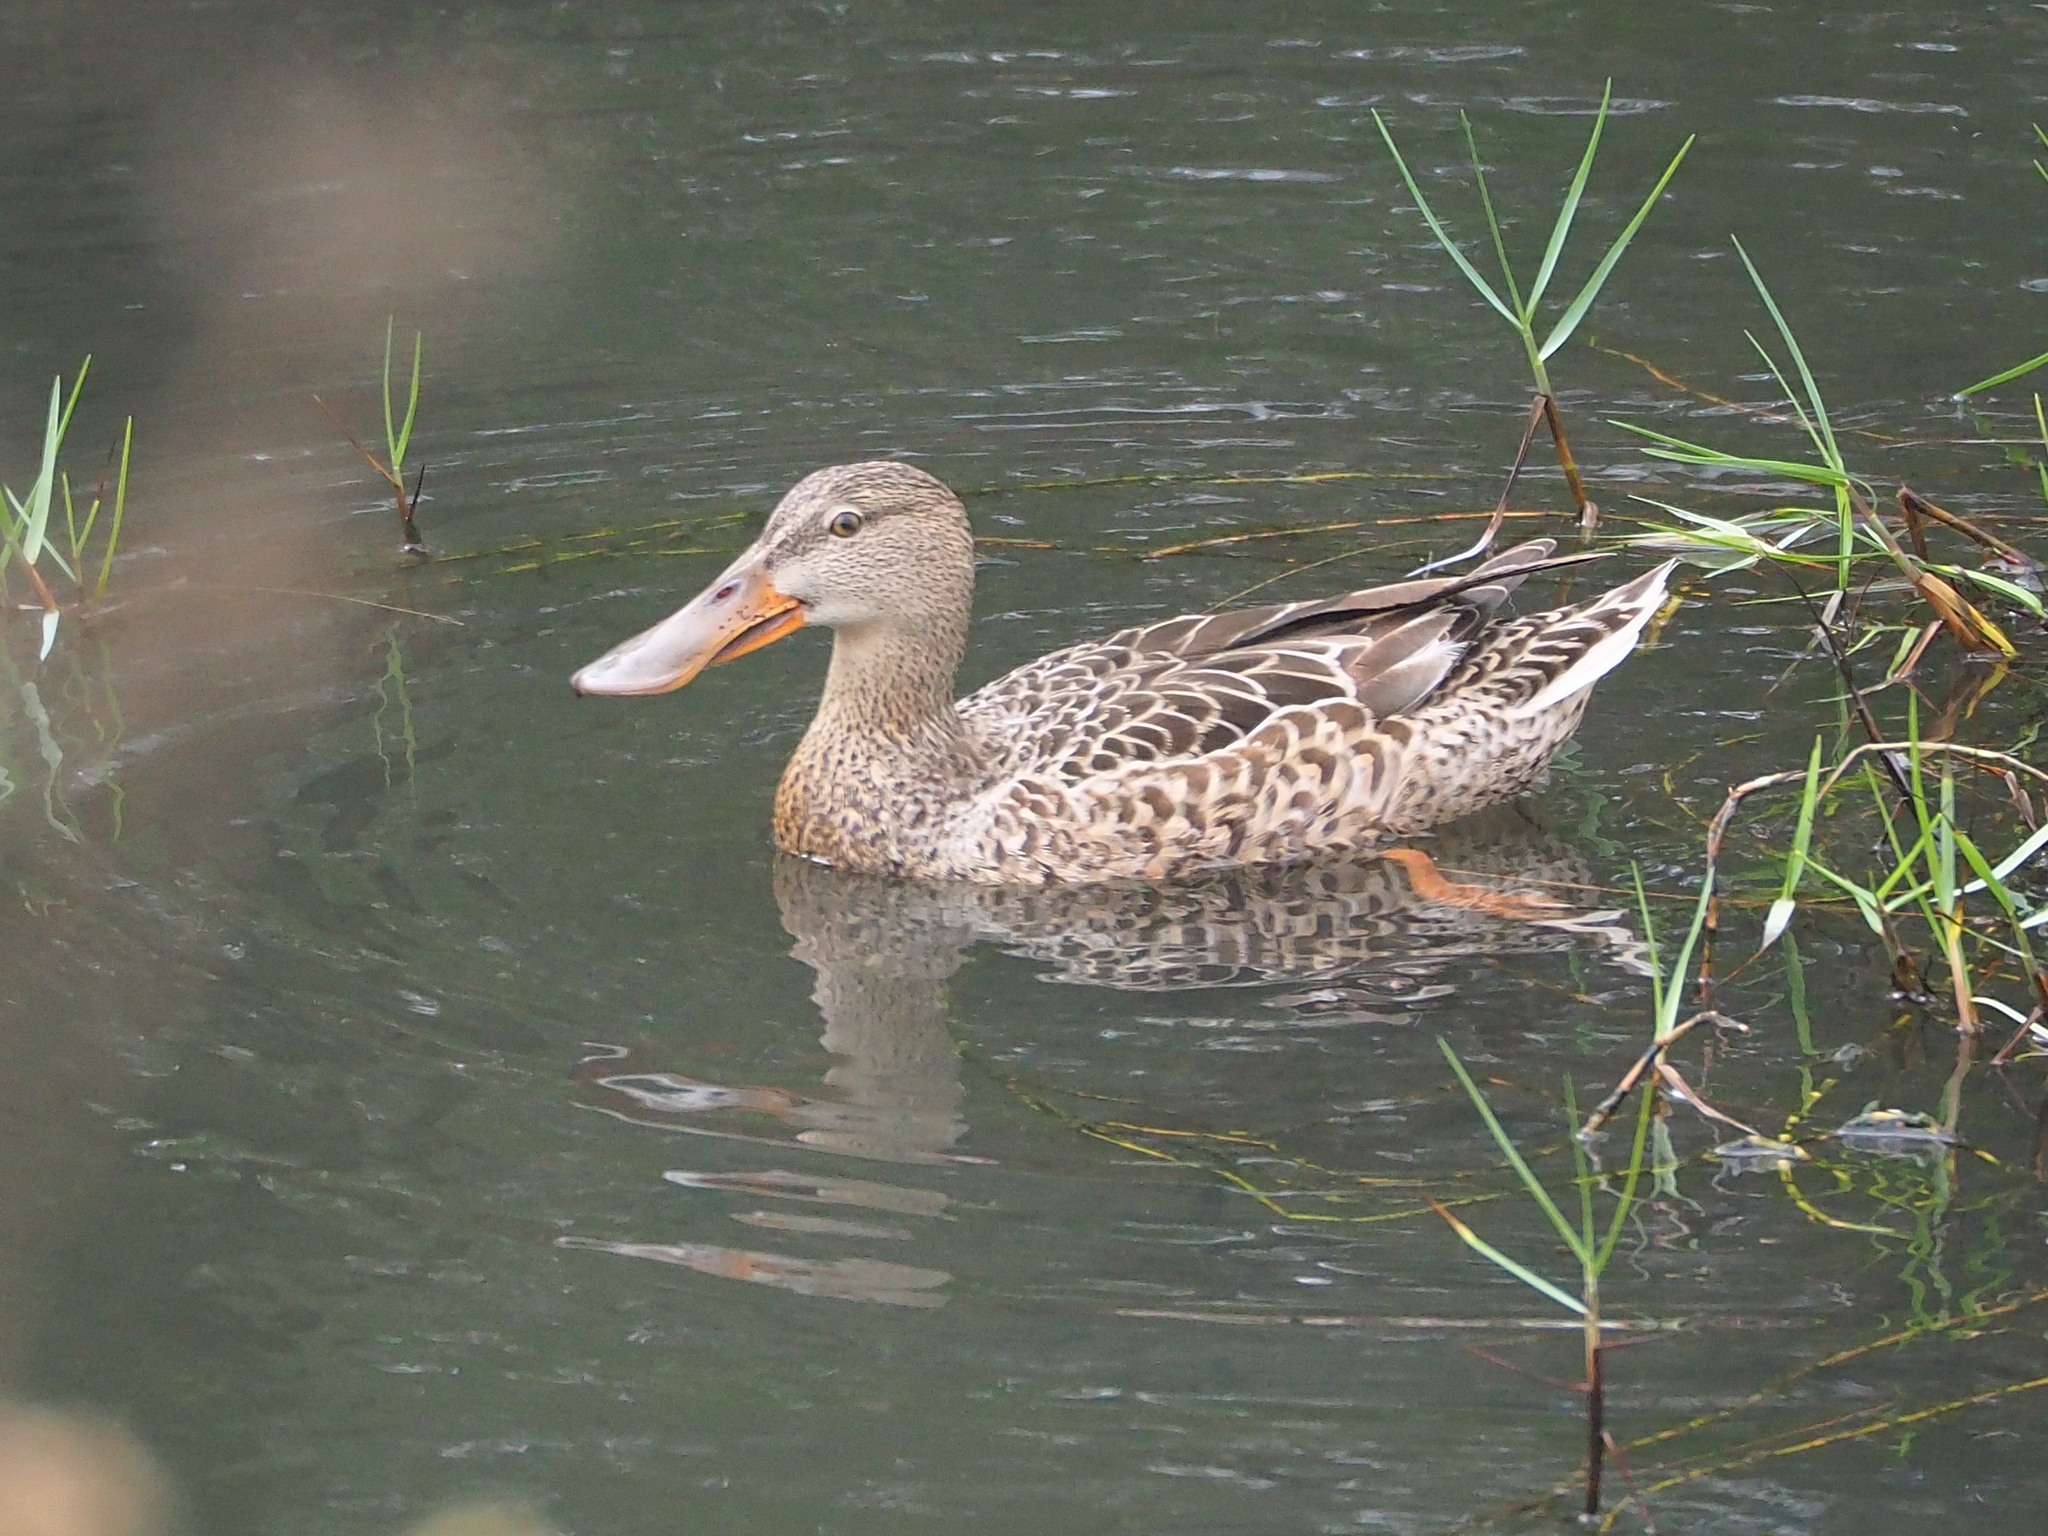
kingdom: Animalia
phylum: Chordata
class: Aves
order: Anseriformes
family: Anatidae
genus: Spatula
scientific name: Spatula clypeata
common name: Northern shoveler
